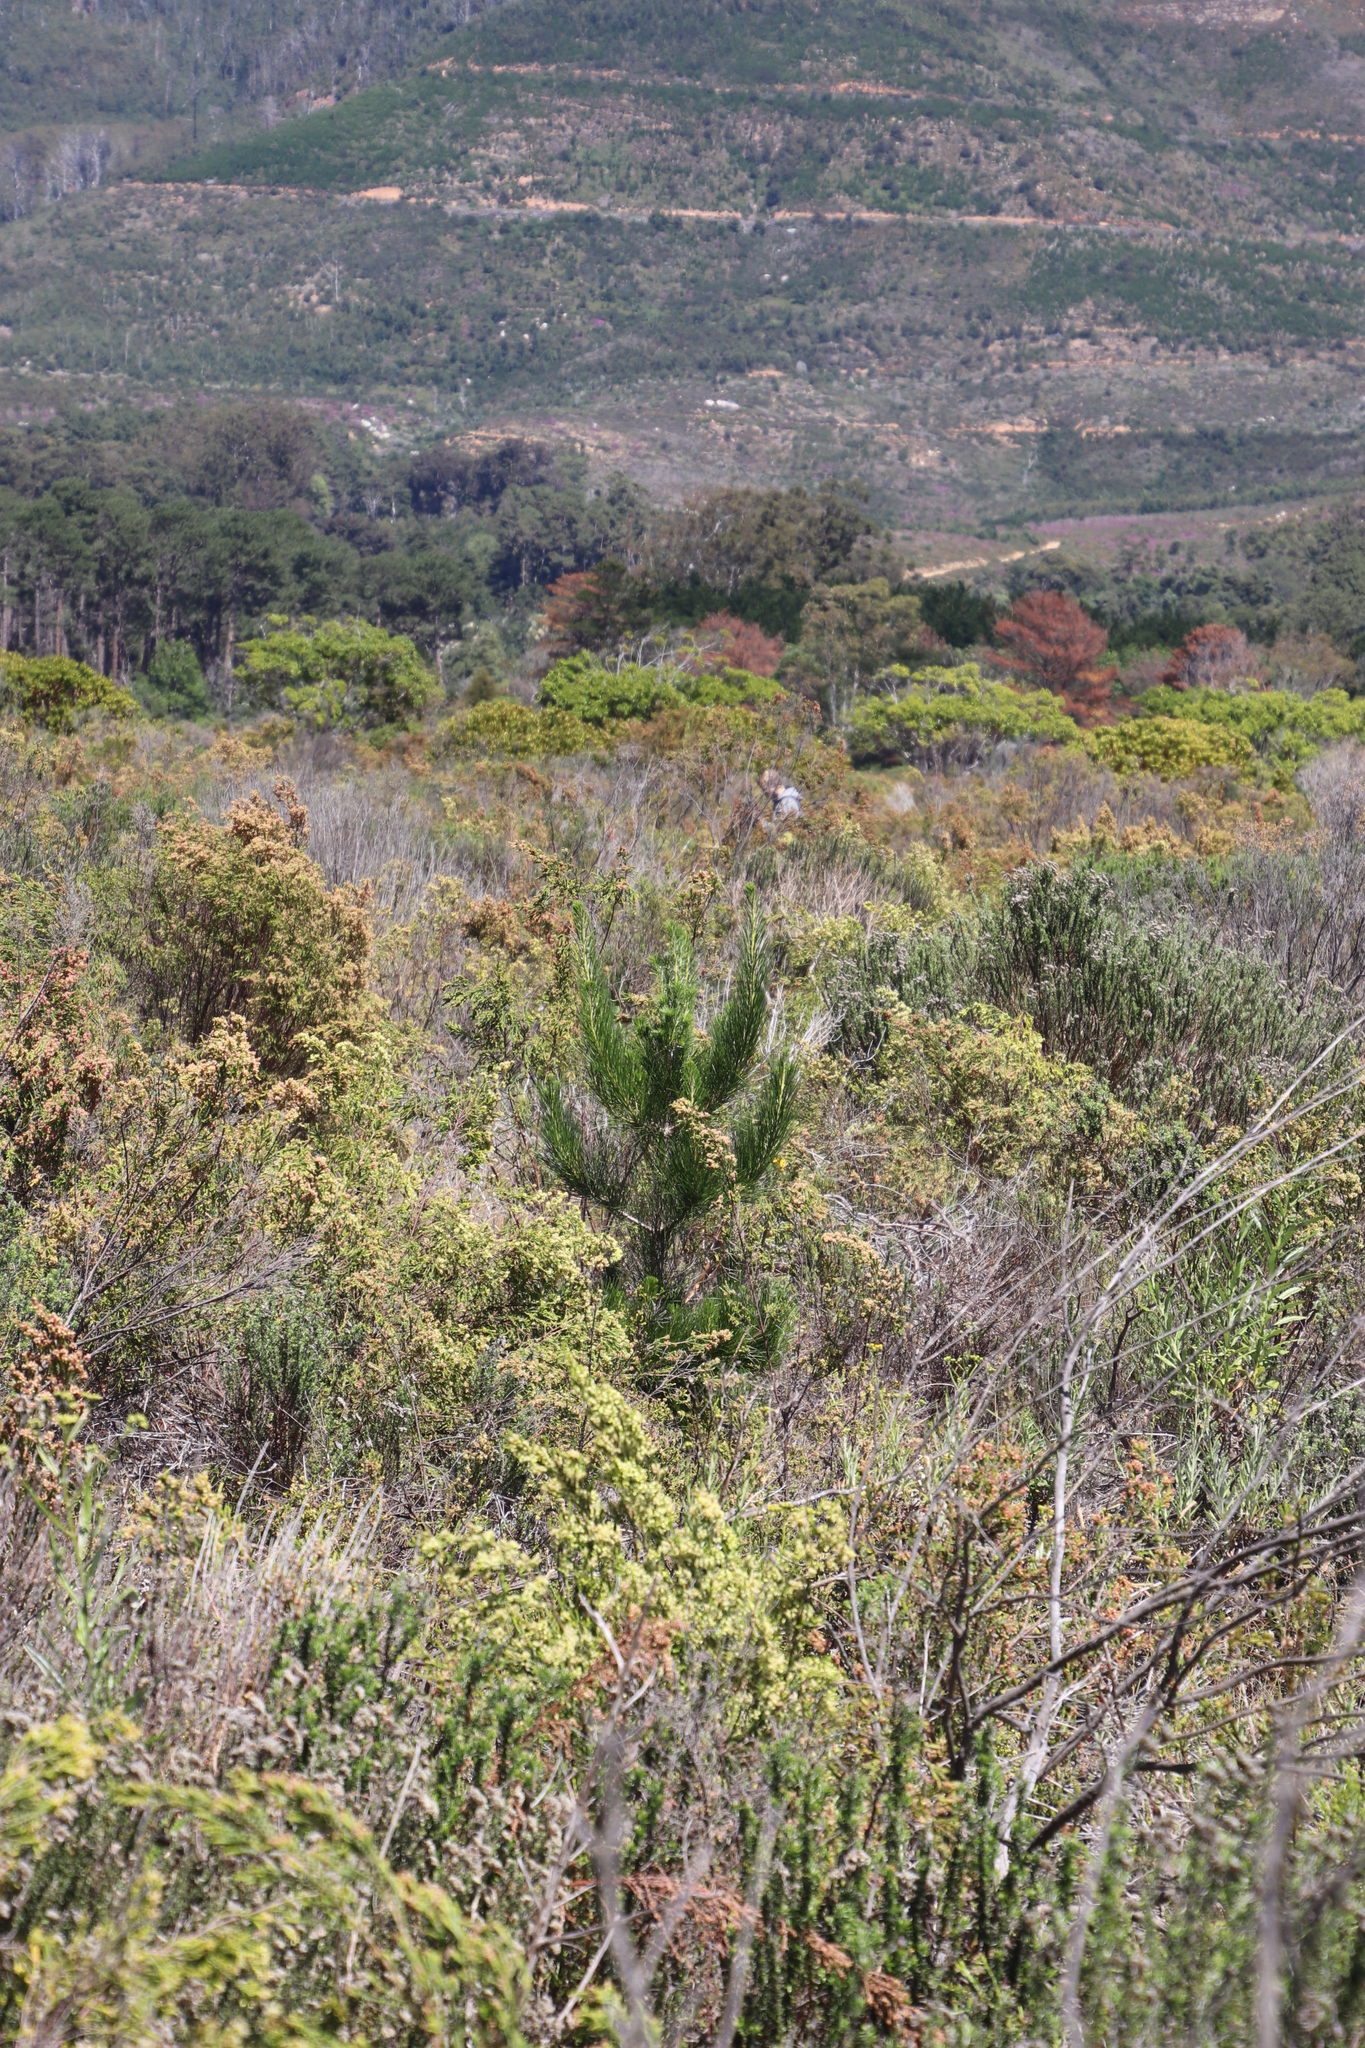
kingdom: Plantae
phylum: Tracheophyta
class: Pinopsida
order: Pinales
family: Pinaceae
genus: Pinus
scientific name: Pinus radiata
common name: Monterey pine
